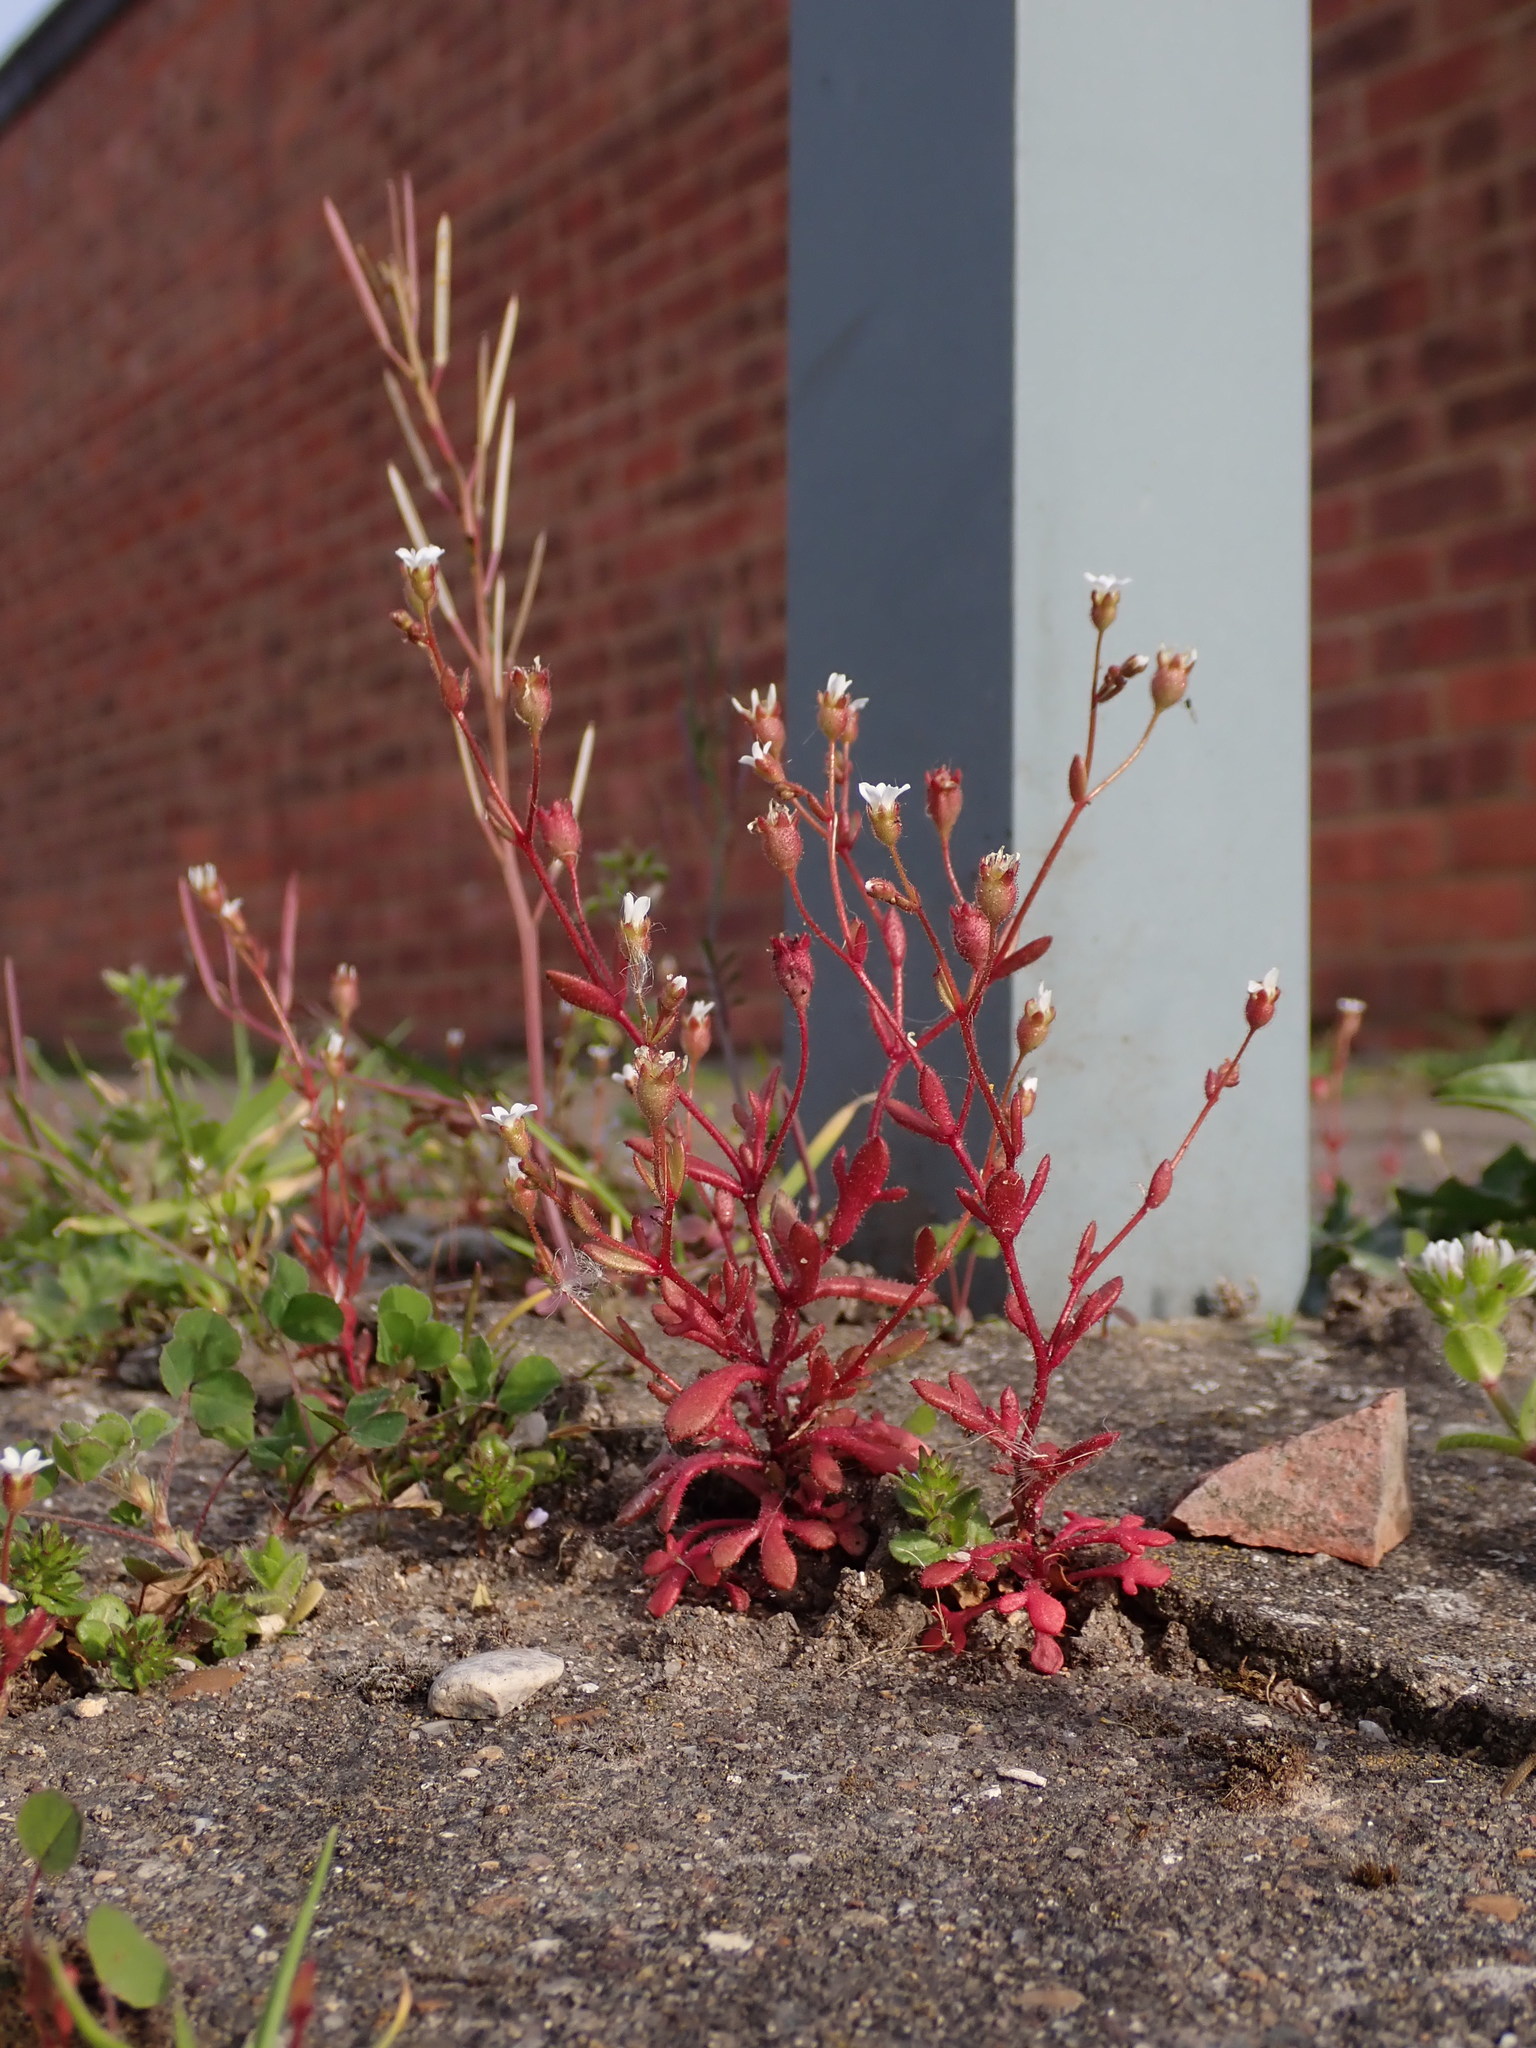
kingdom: Plantae
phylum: Tracheophyta
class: Magnoliopsida
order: Saxifragales
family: Saxifragaceae
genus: Saxifraga
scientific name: Saxifraga tridactylites
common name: Rue-leaved saxifrage
